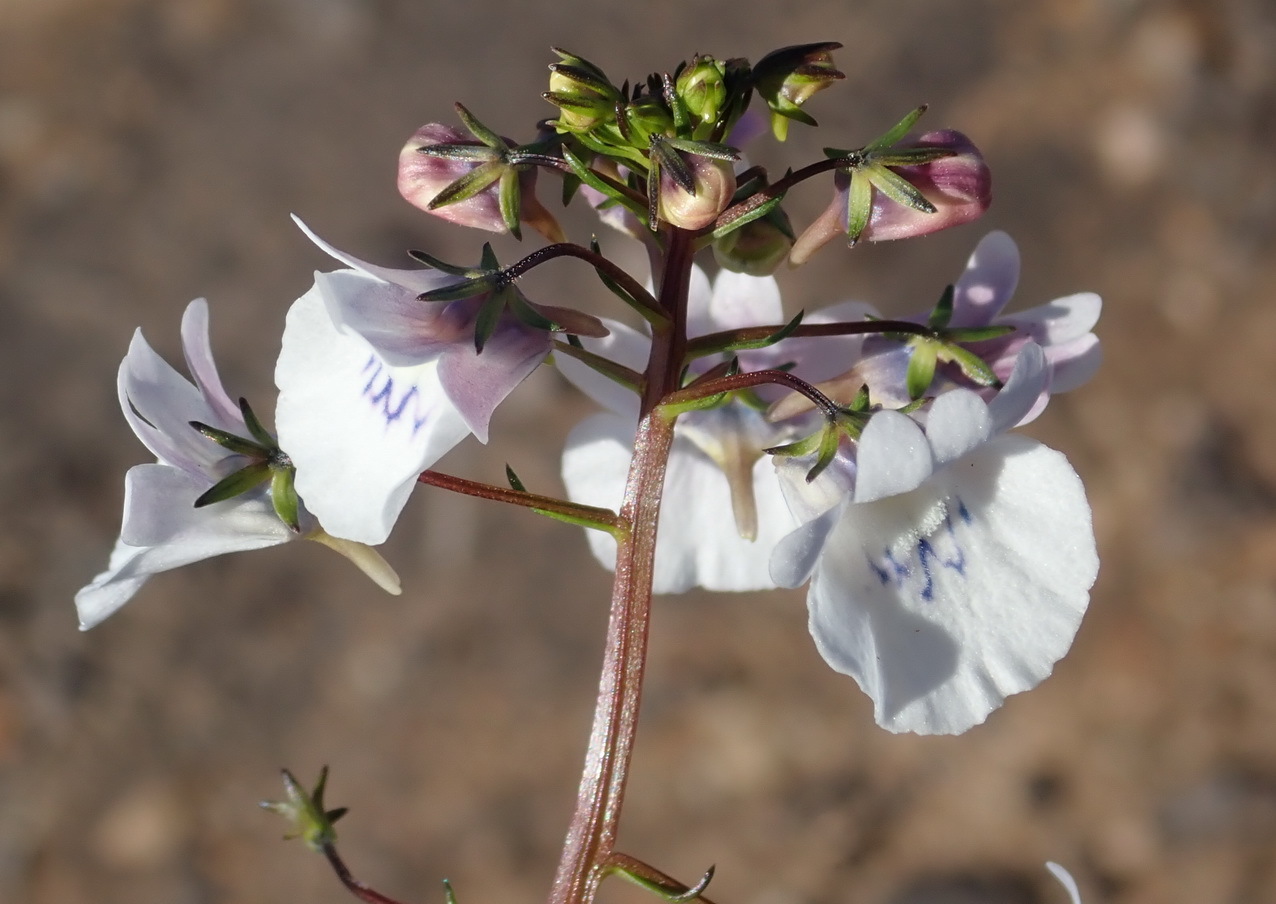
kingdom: Plantae
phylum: Tracheophyta
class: Magnoliopsida
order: Lamiales
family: Scrophulariaceae
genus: Nemesia
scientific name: Nemesia elata
